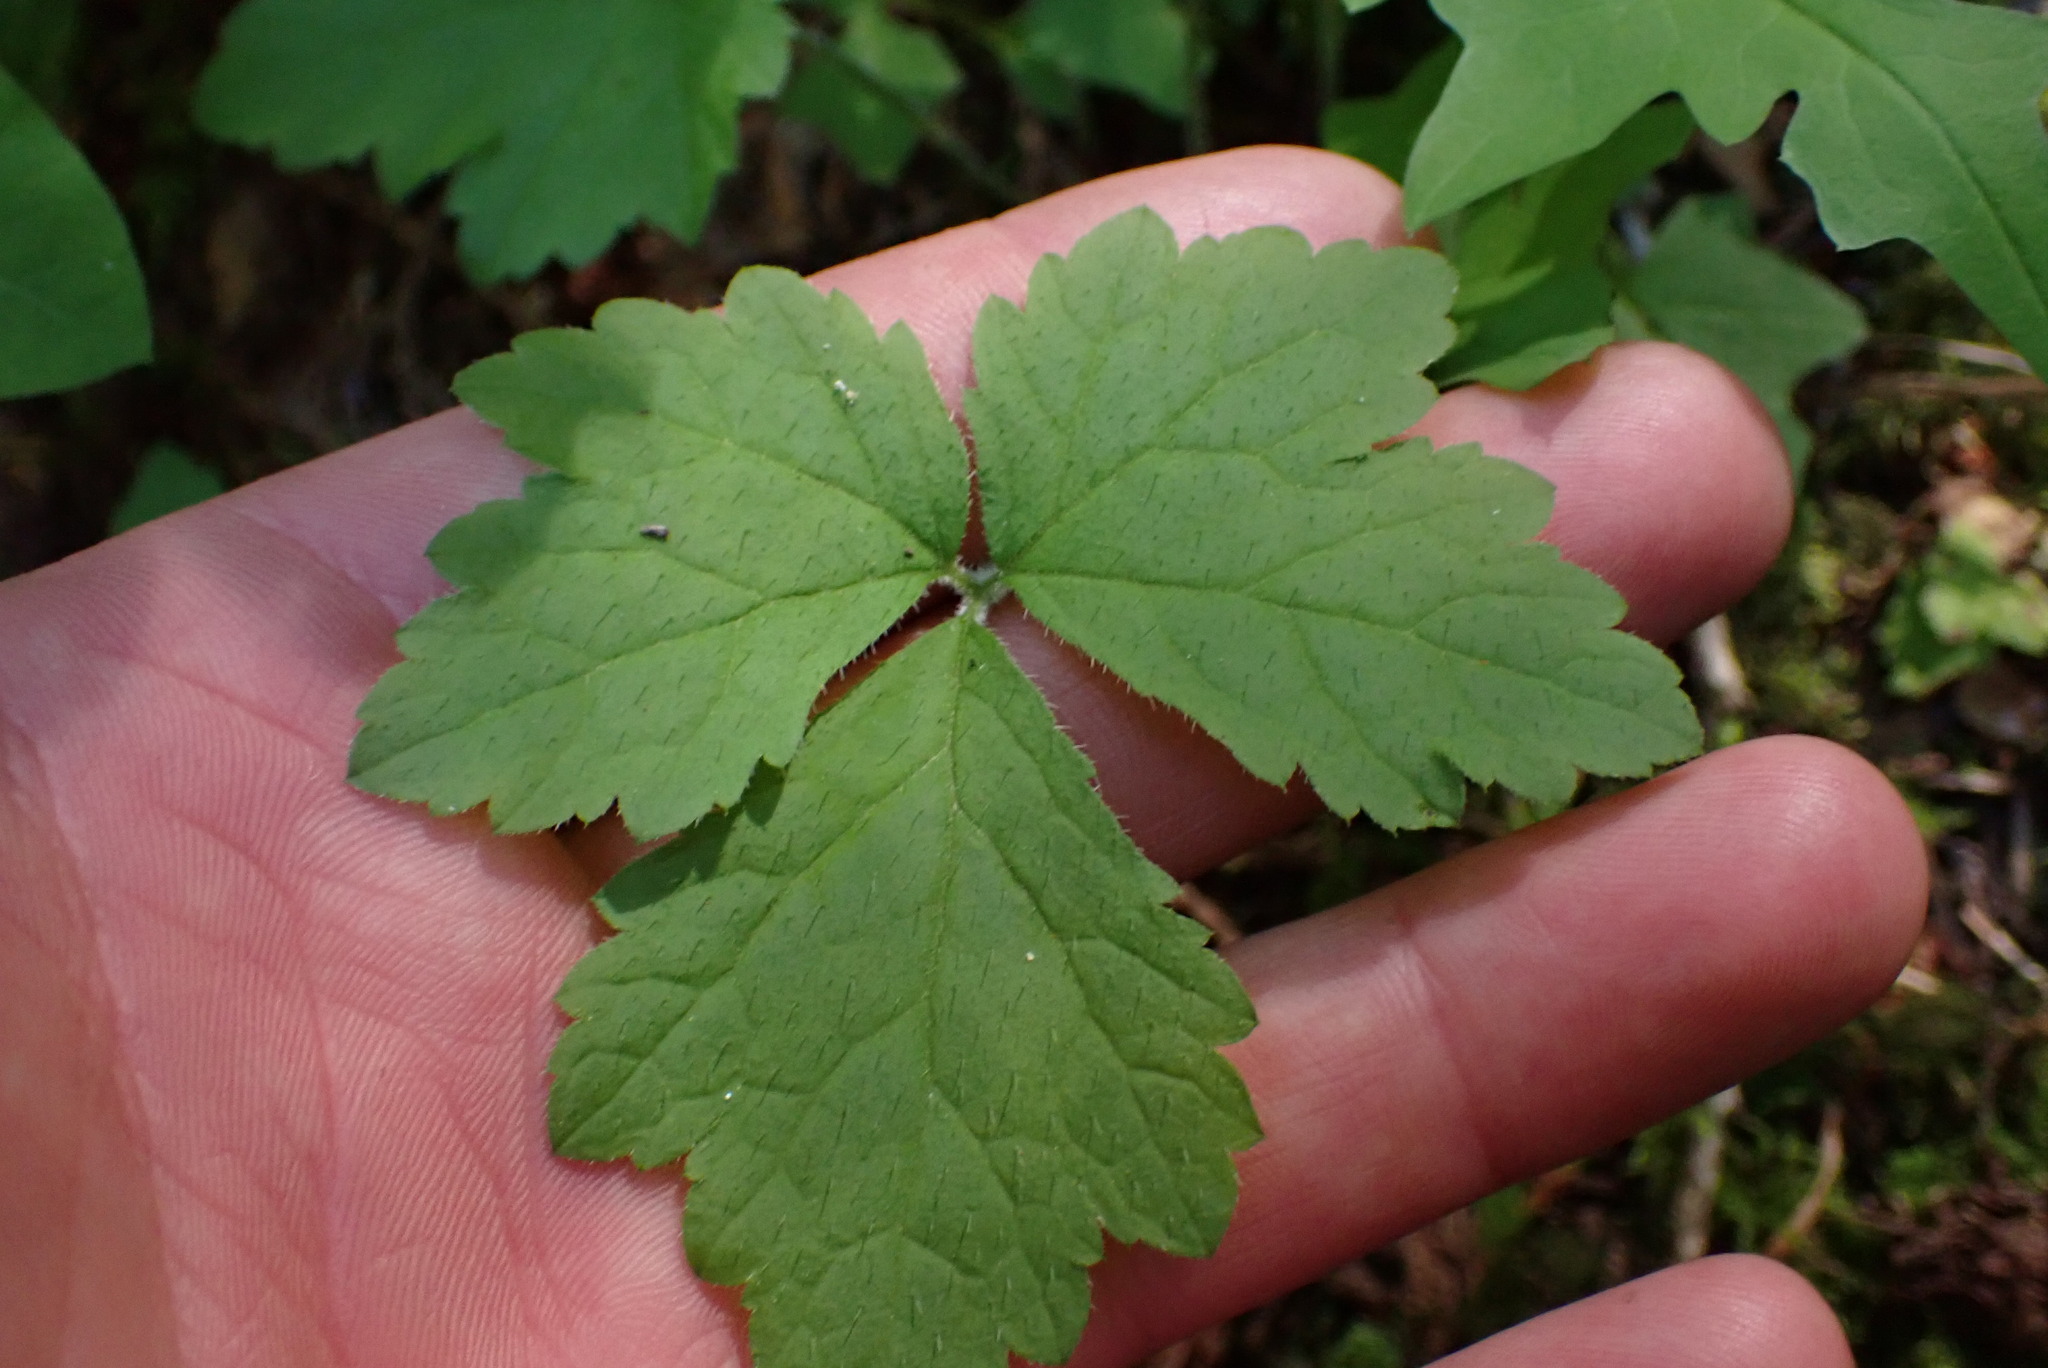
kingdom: Plantae
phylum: Tracheophyta
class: Magnoliopsida
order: Saxifragales
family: Saxifragaceae
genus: Tiarella
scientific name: Tiarella trifoliata
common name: Sugar-scoop
